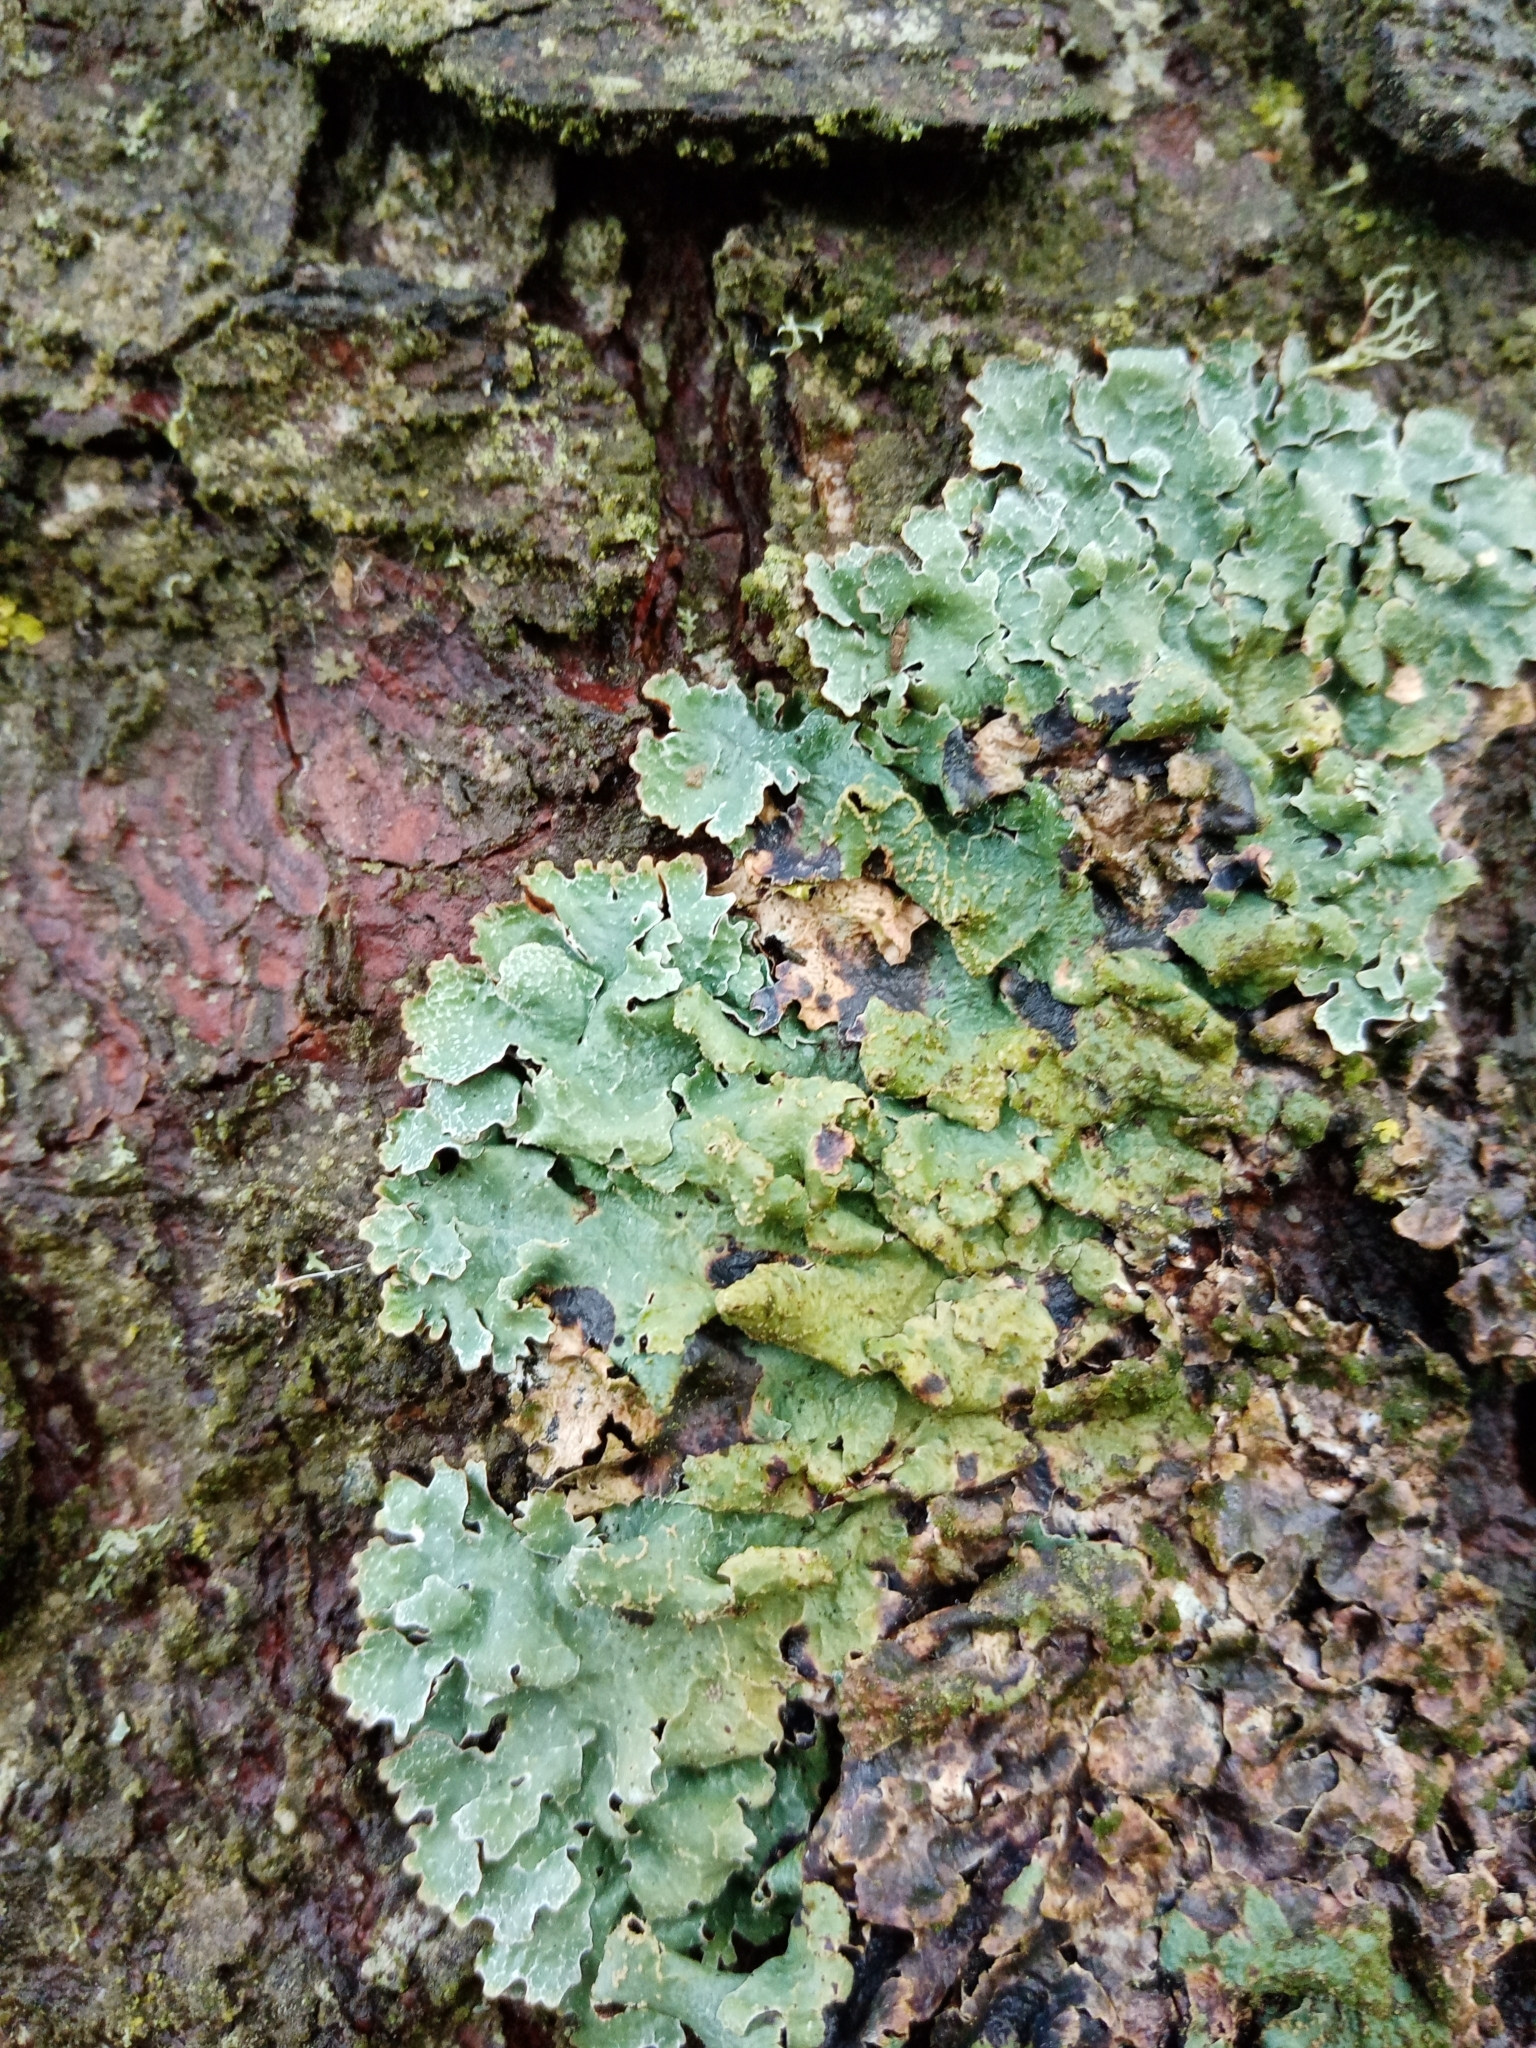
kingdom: Fungi
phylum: Ascomycota
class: Lecanoromycetes
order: Lecanorales
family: Parmeliaceae
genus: Parmelia
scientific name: Parmelia sulcata
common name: Netted shield lichen
